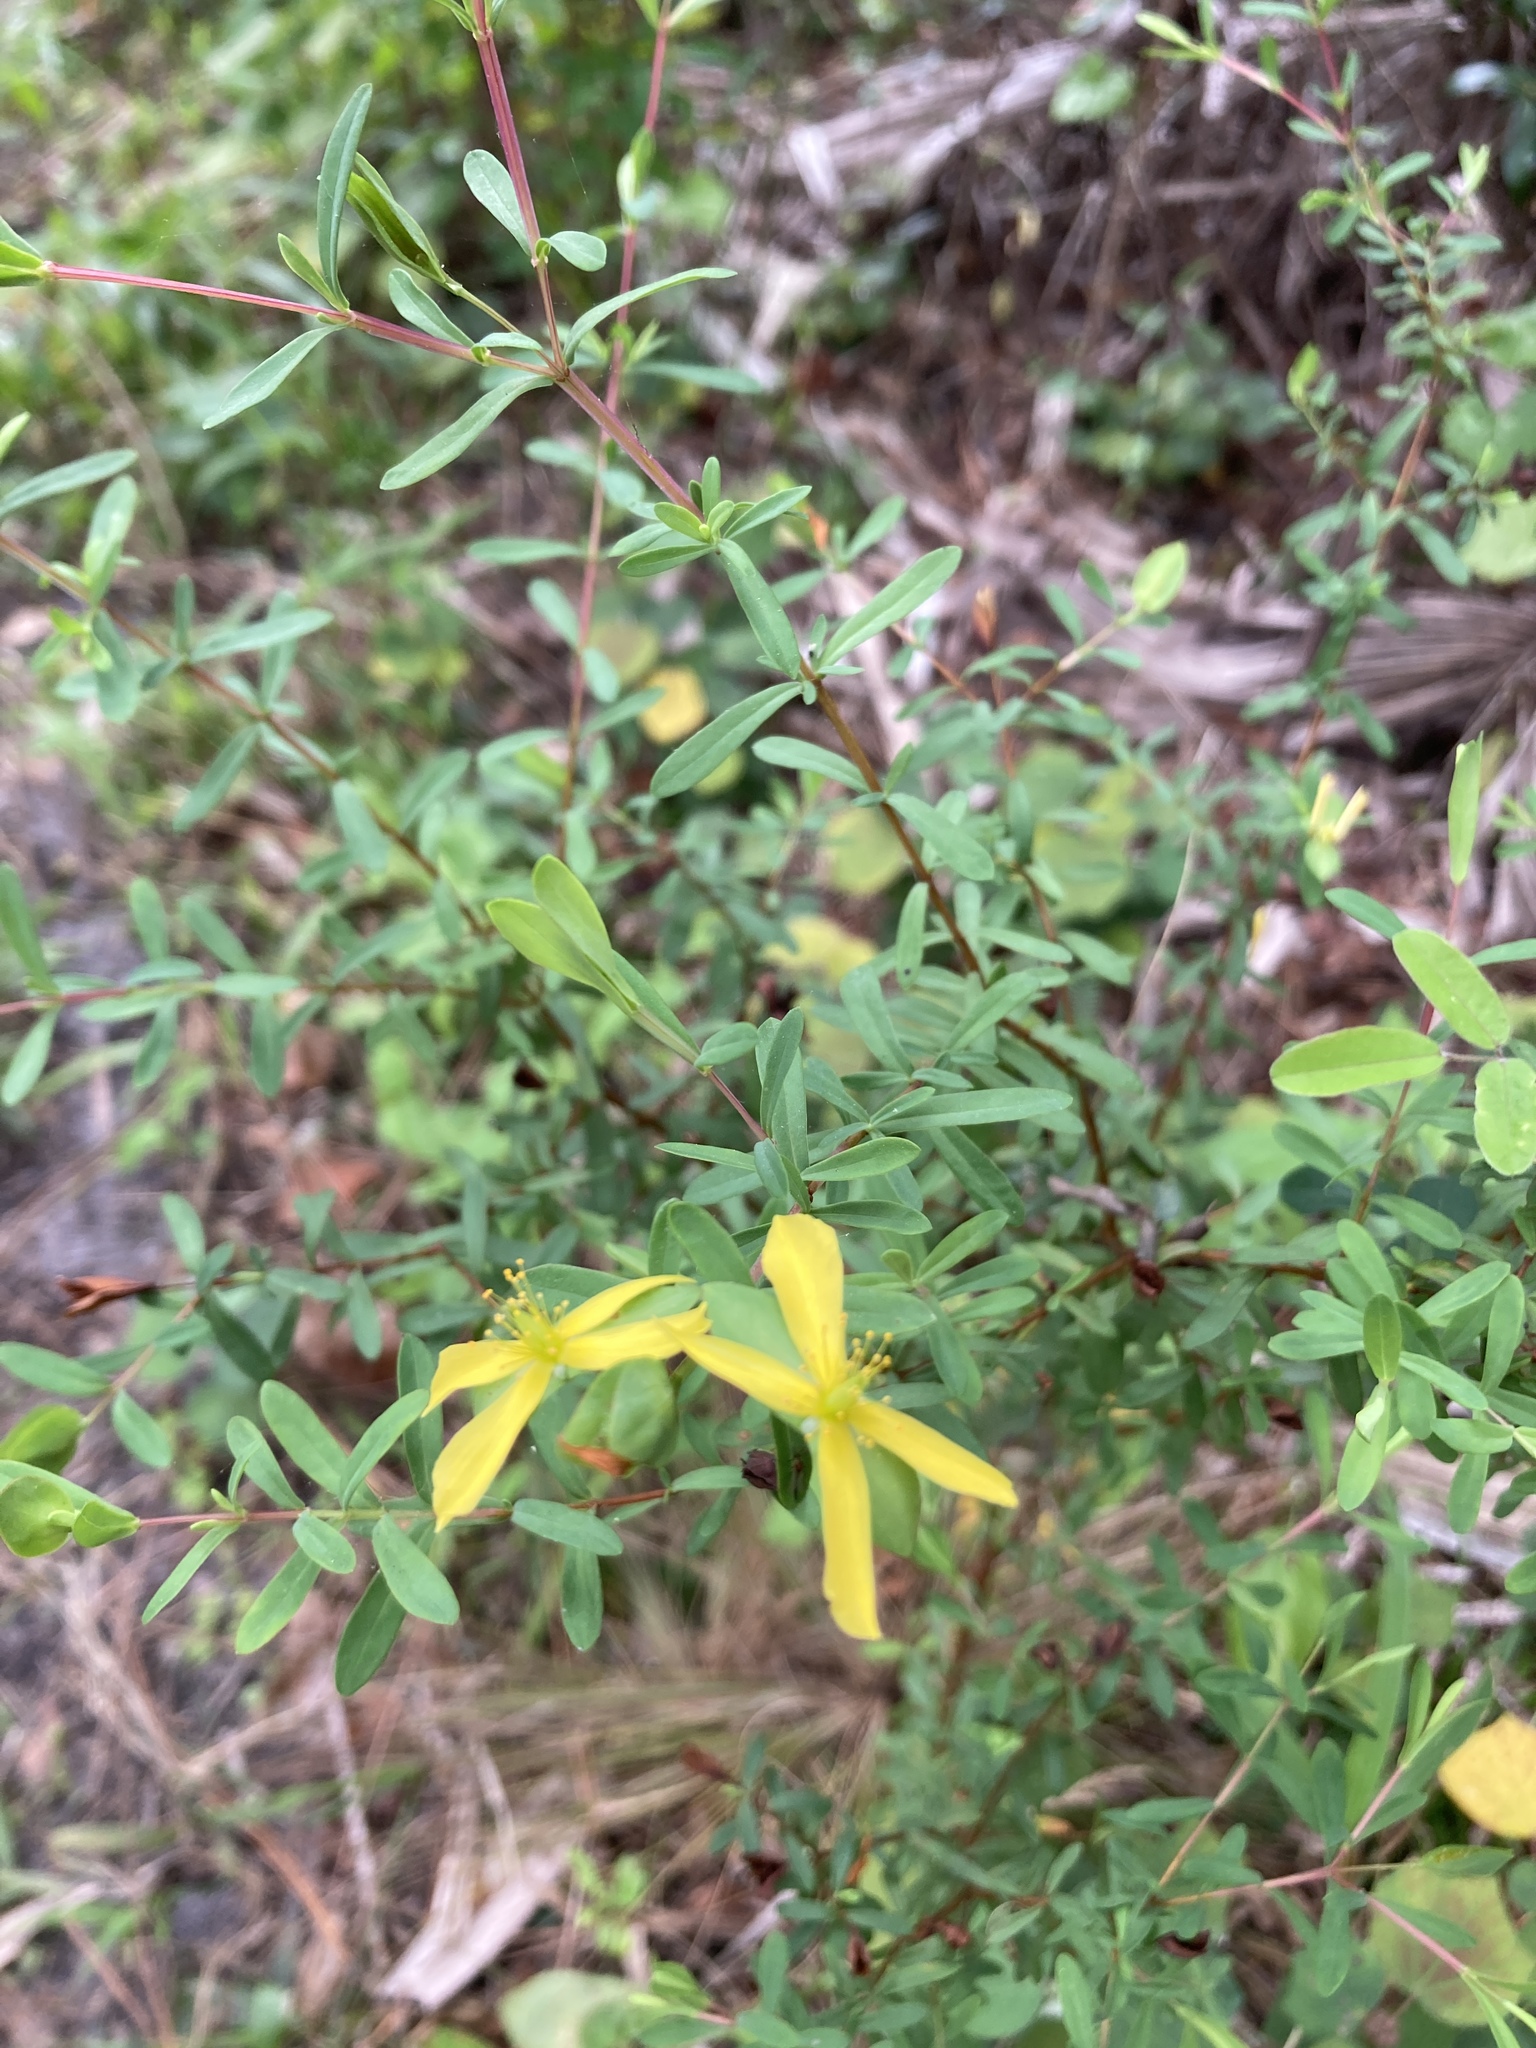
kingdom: Plantae
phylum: Tracheophyta
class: Magnoliopsida
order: Malpighiales
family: Hypericaceae
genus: Hypericum
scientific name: Hypericum hypericoides
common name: St. andrew's cross
